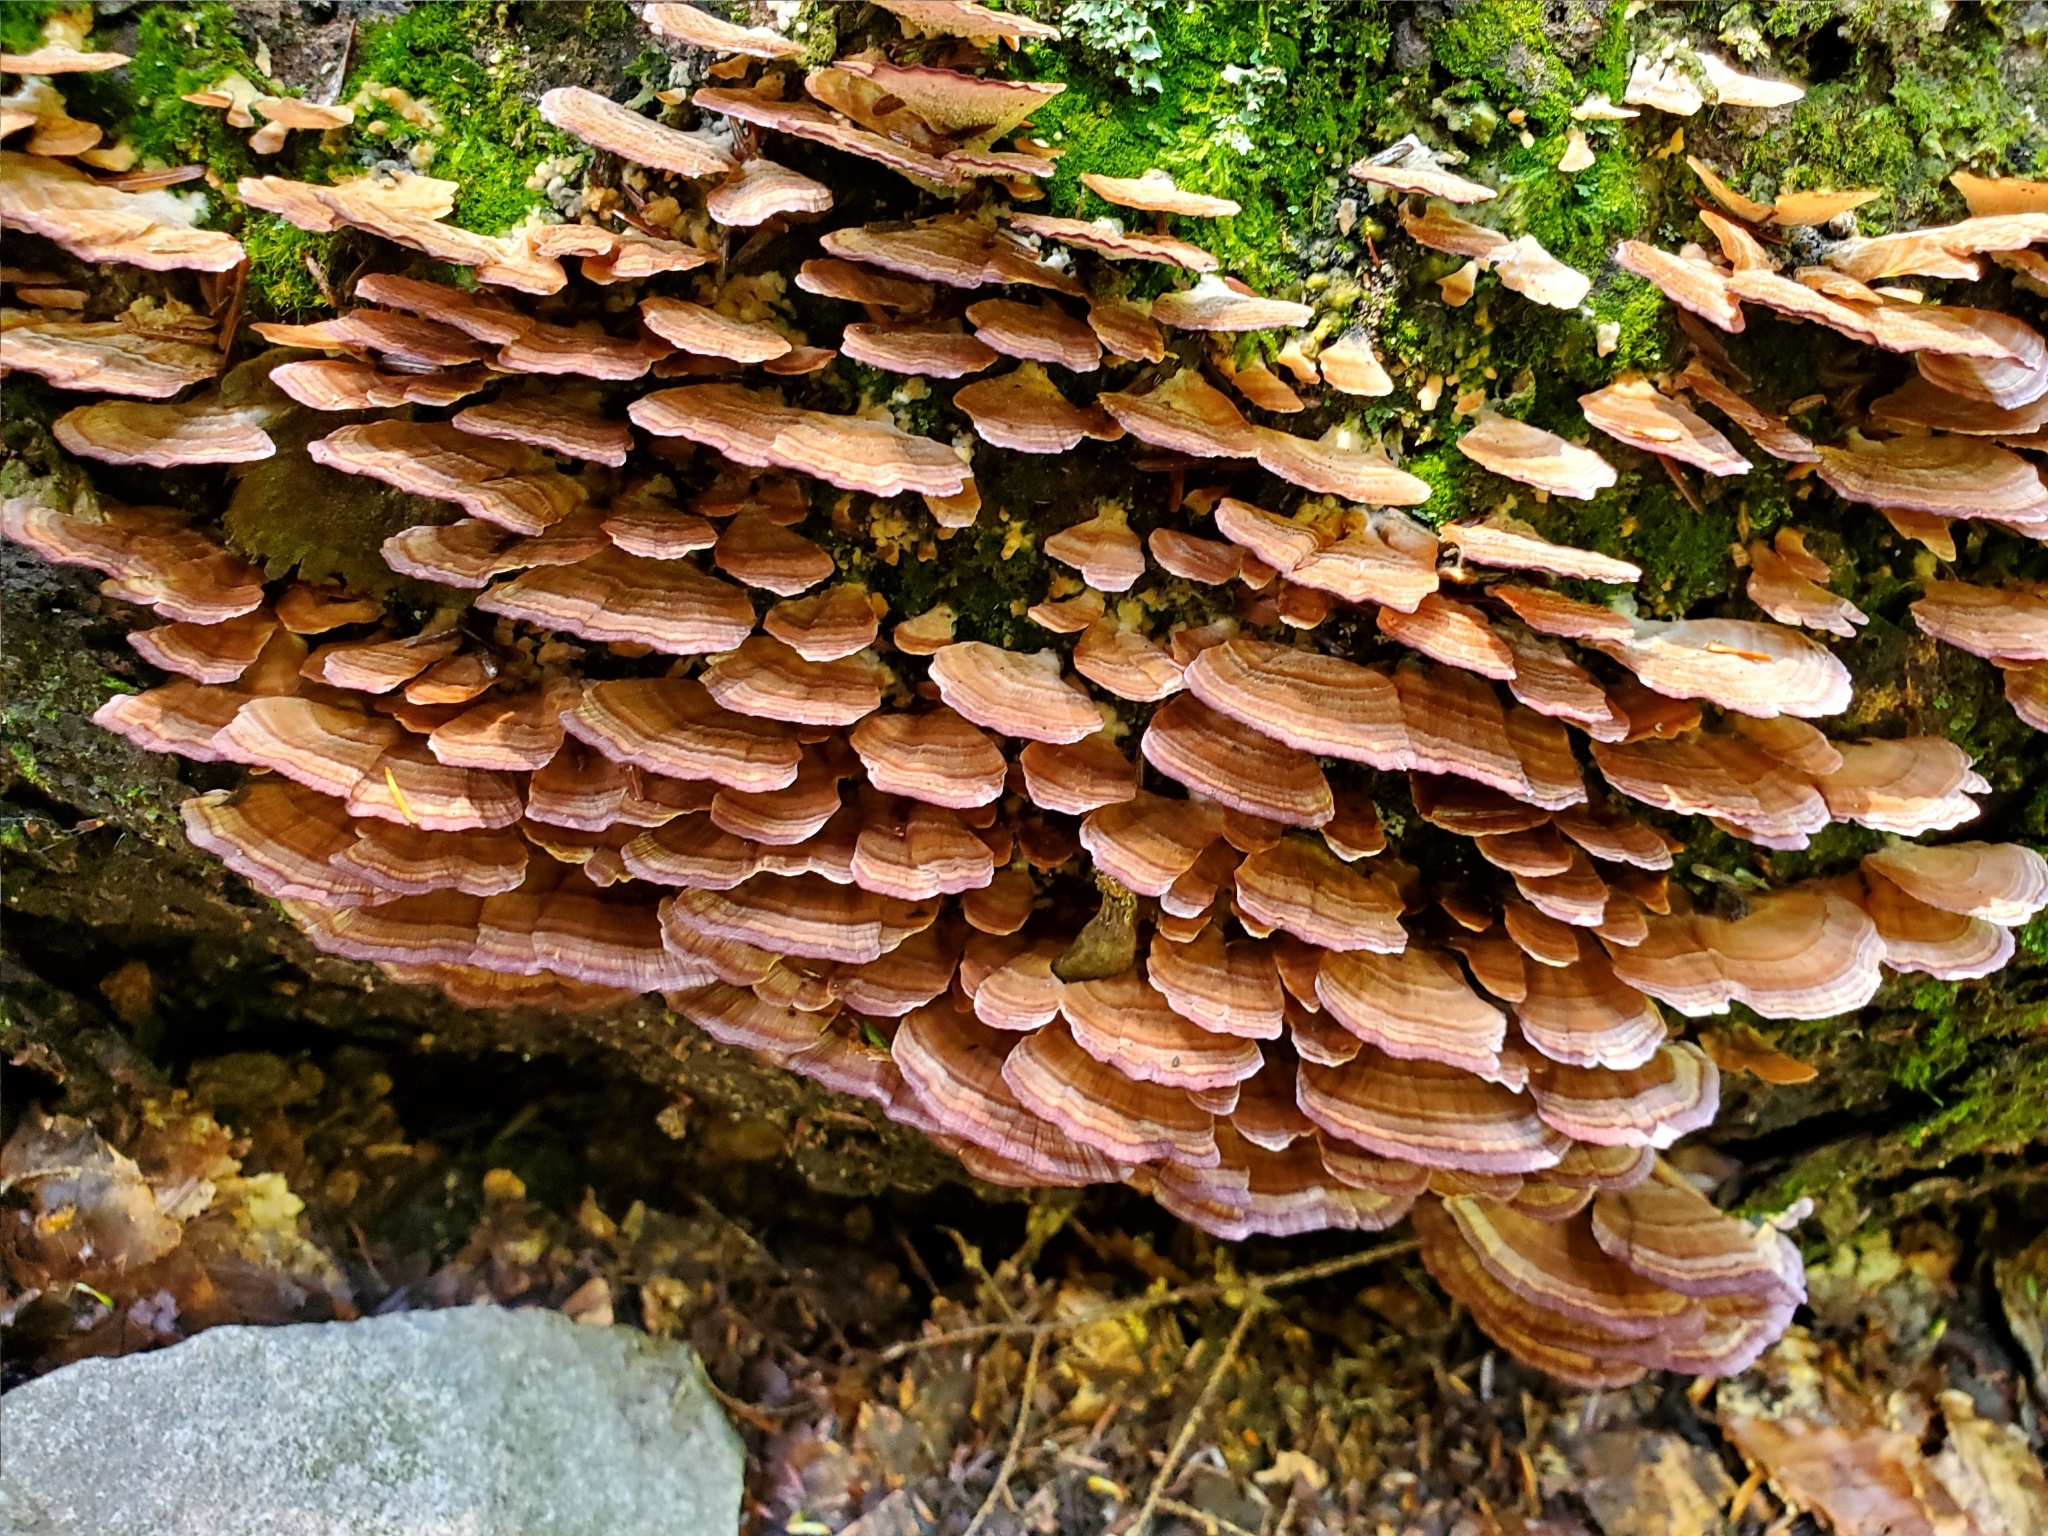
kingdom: Fungi
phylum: Basidiomycota
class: Agaricomycetes
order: Hymenochaetales
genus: Trichaptum
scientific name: Trichaptum biforme
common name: Violet-toothed polypore
